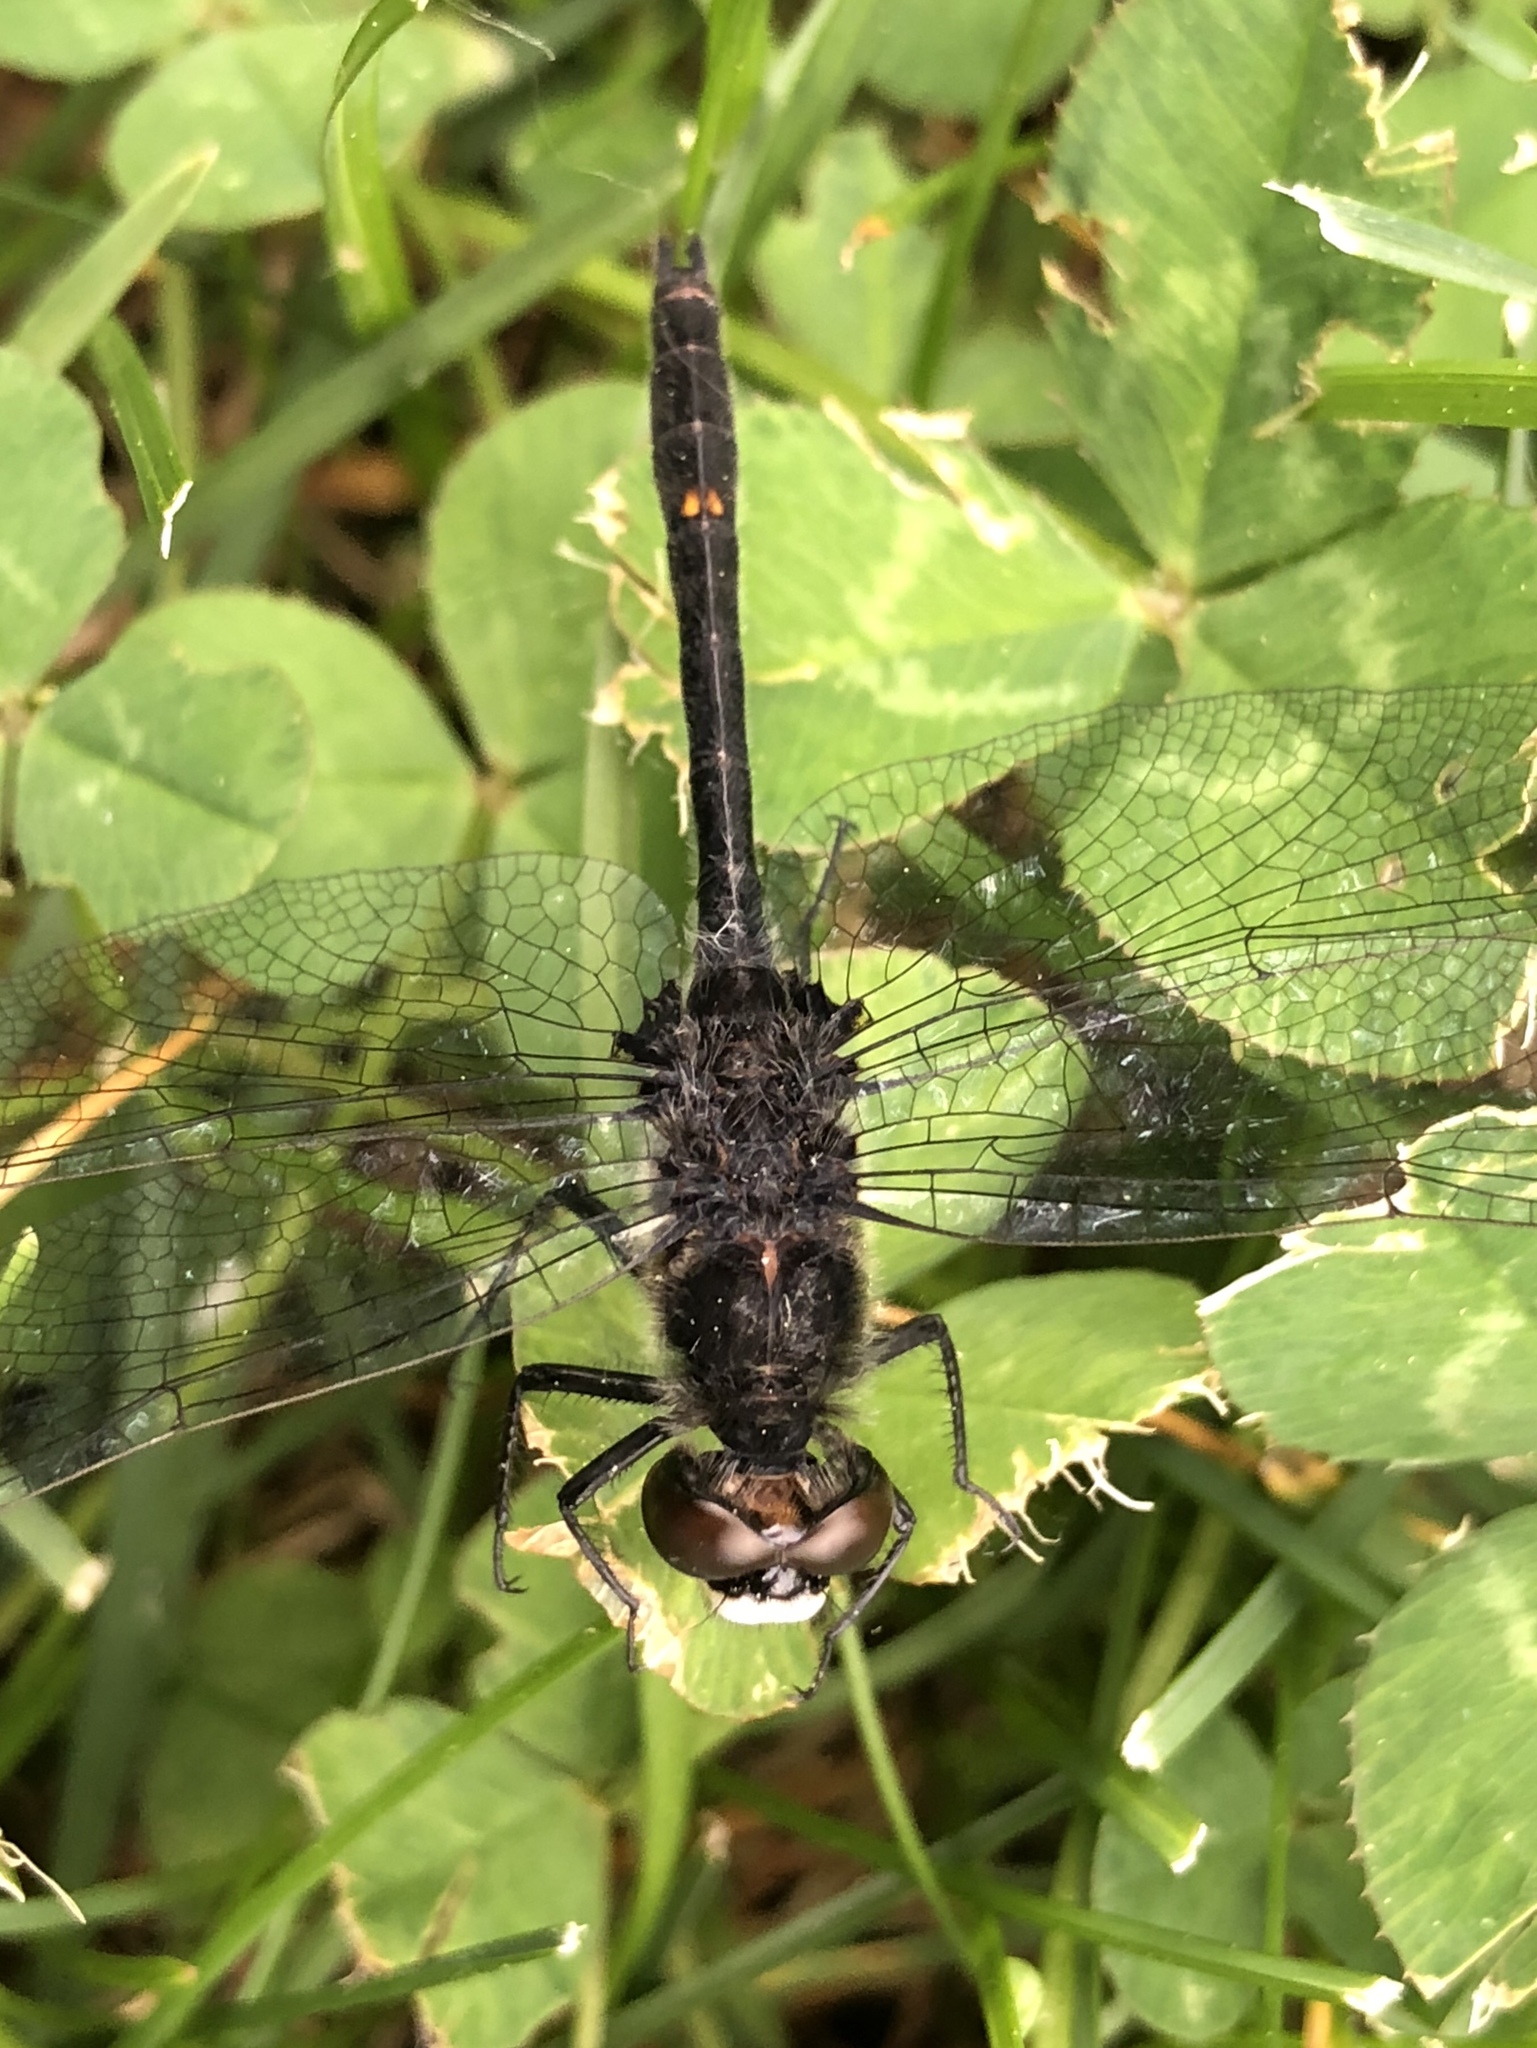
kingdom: Animalia
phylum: Arthropoda
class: Insecta
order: Odonata
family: Libellulidae
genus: Leucorrhinia
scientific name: Leucorrhinia intacta
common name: Dot-tailed whiteface
